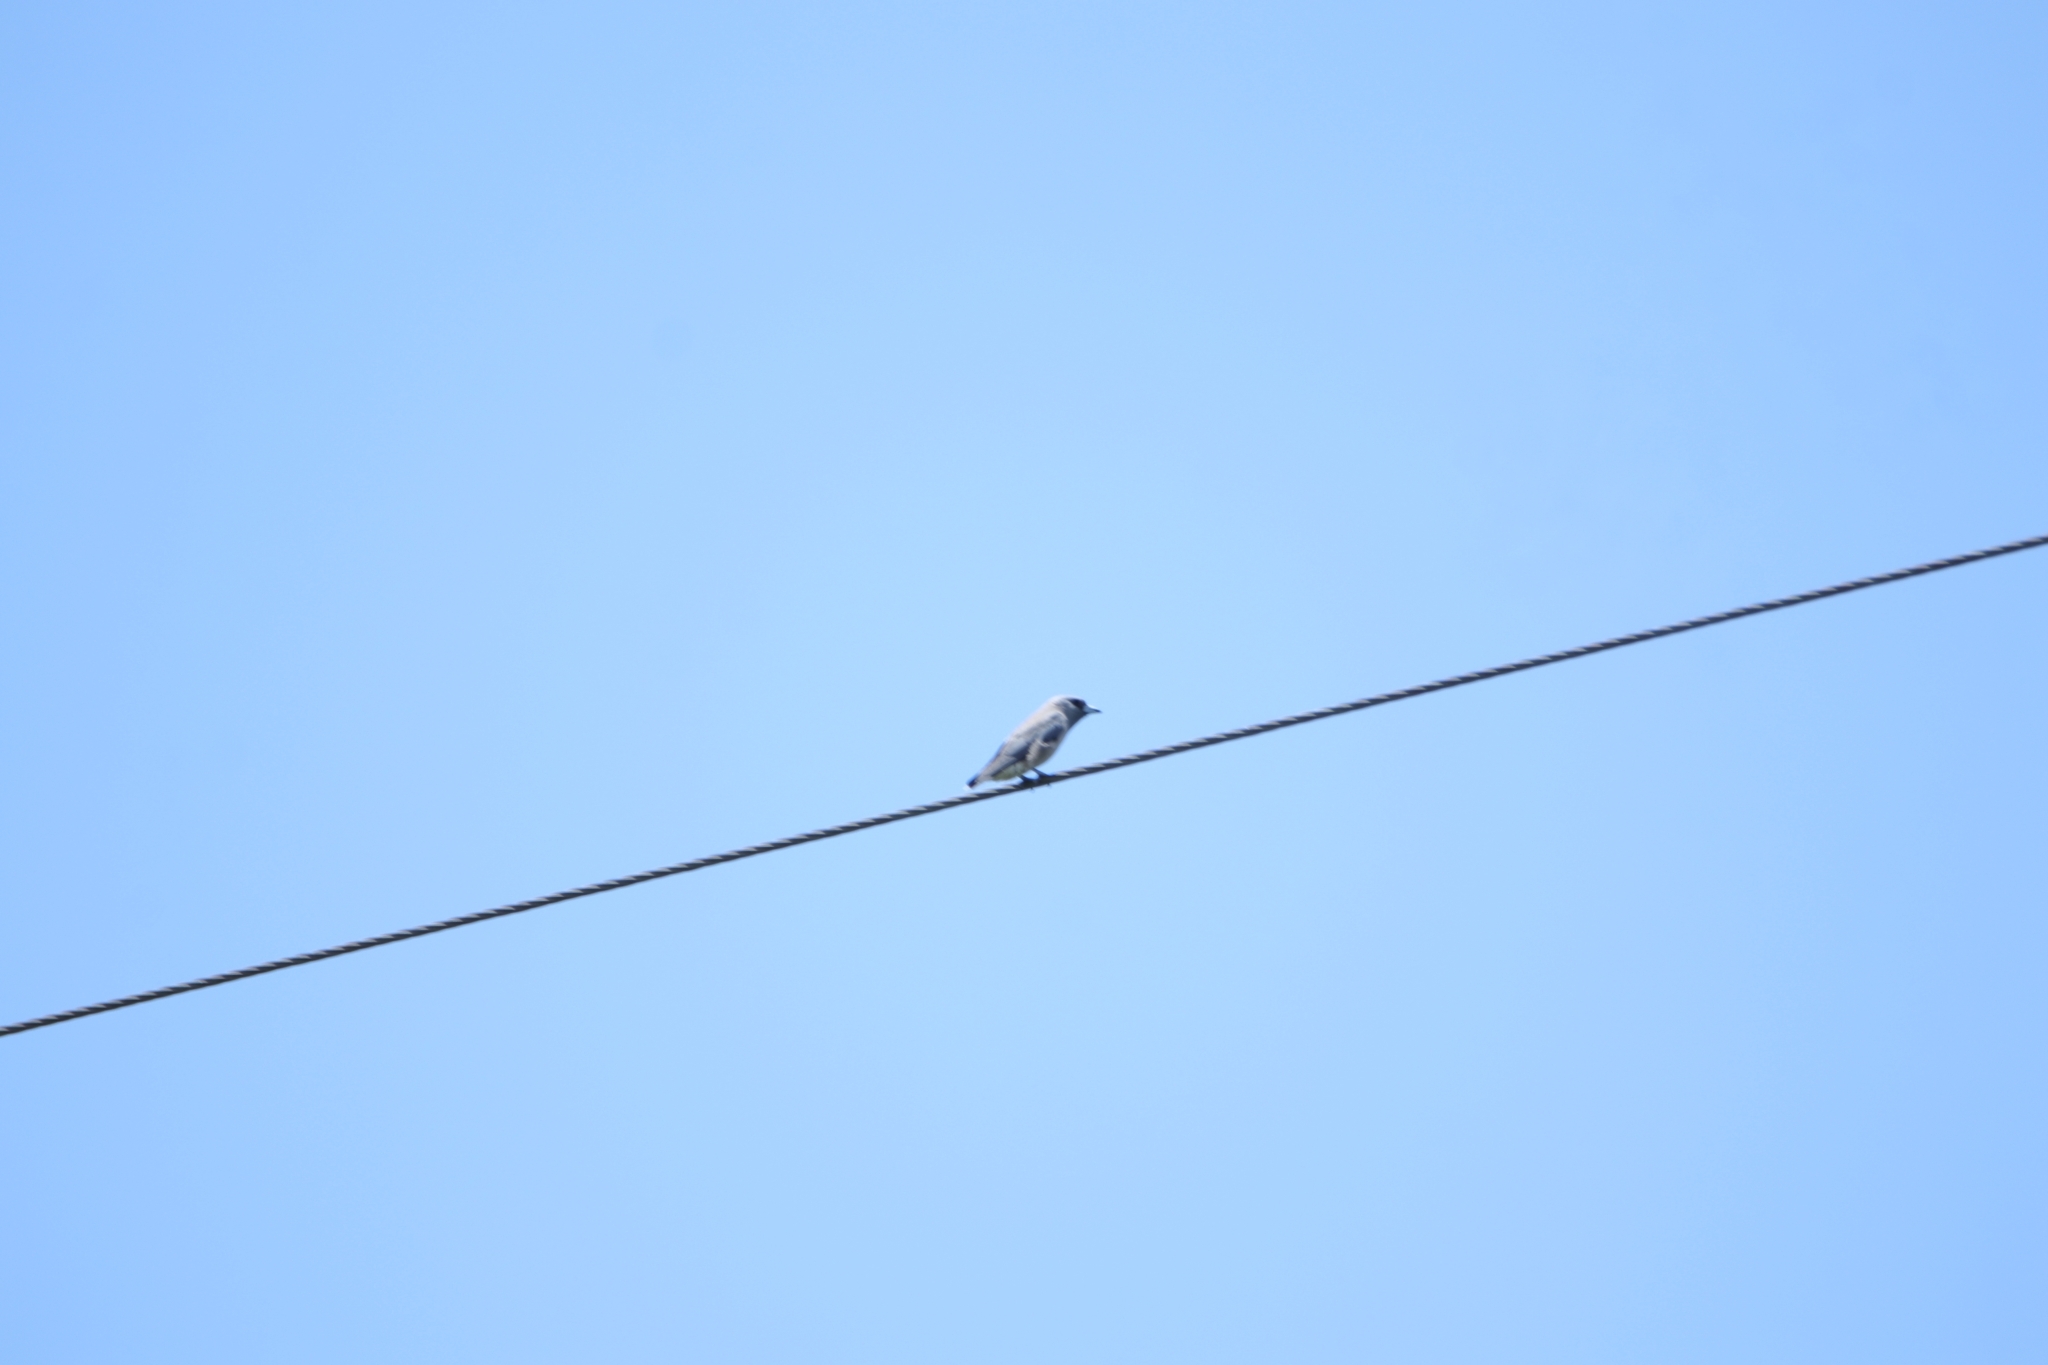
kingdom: Animalia
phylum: Chordata
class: Aves
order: Passeriformes
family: Artamidae
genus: Artamus
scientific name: Artamus fuscus
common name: Ashy woodswallow
